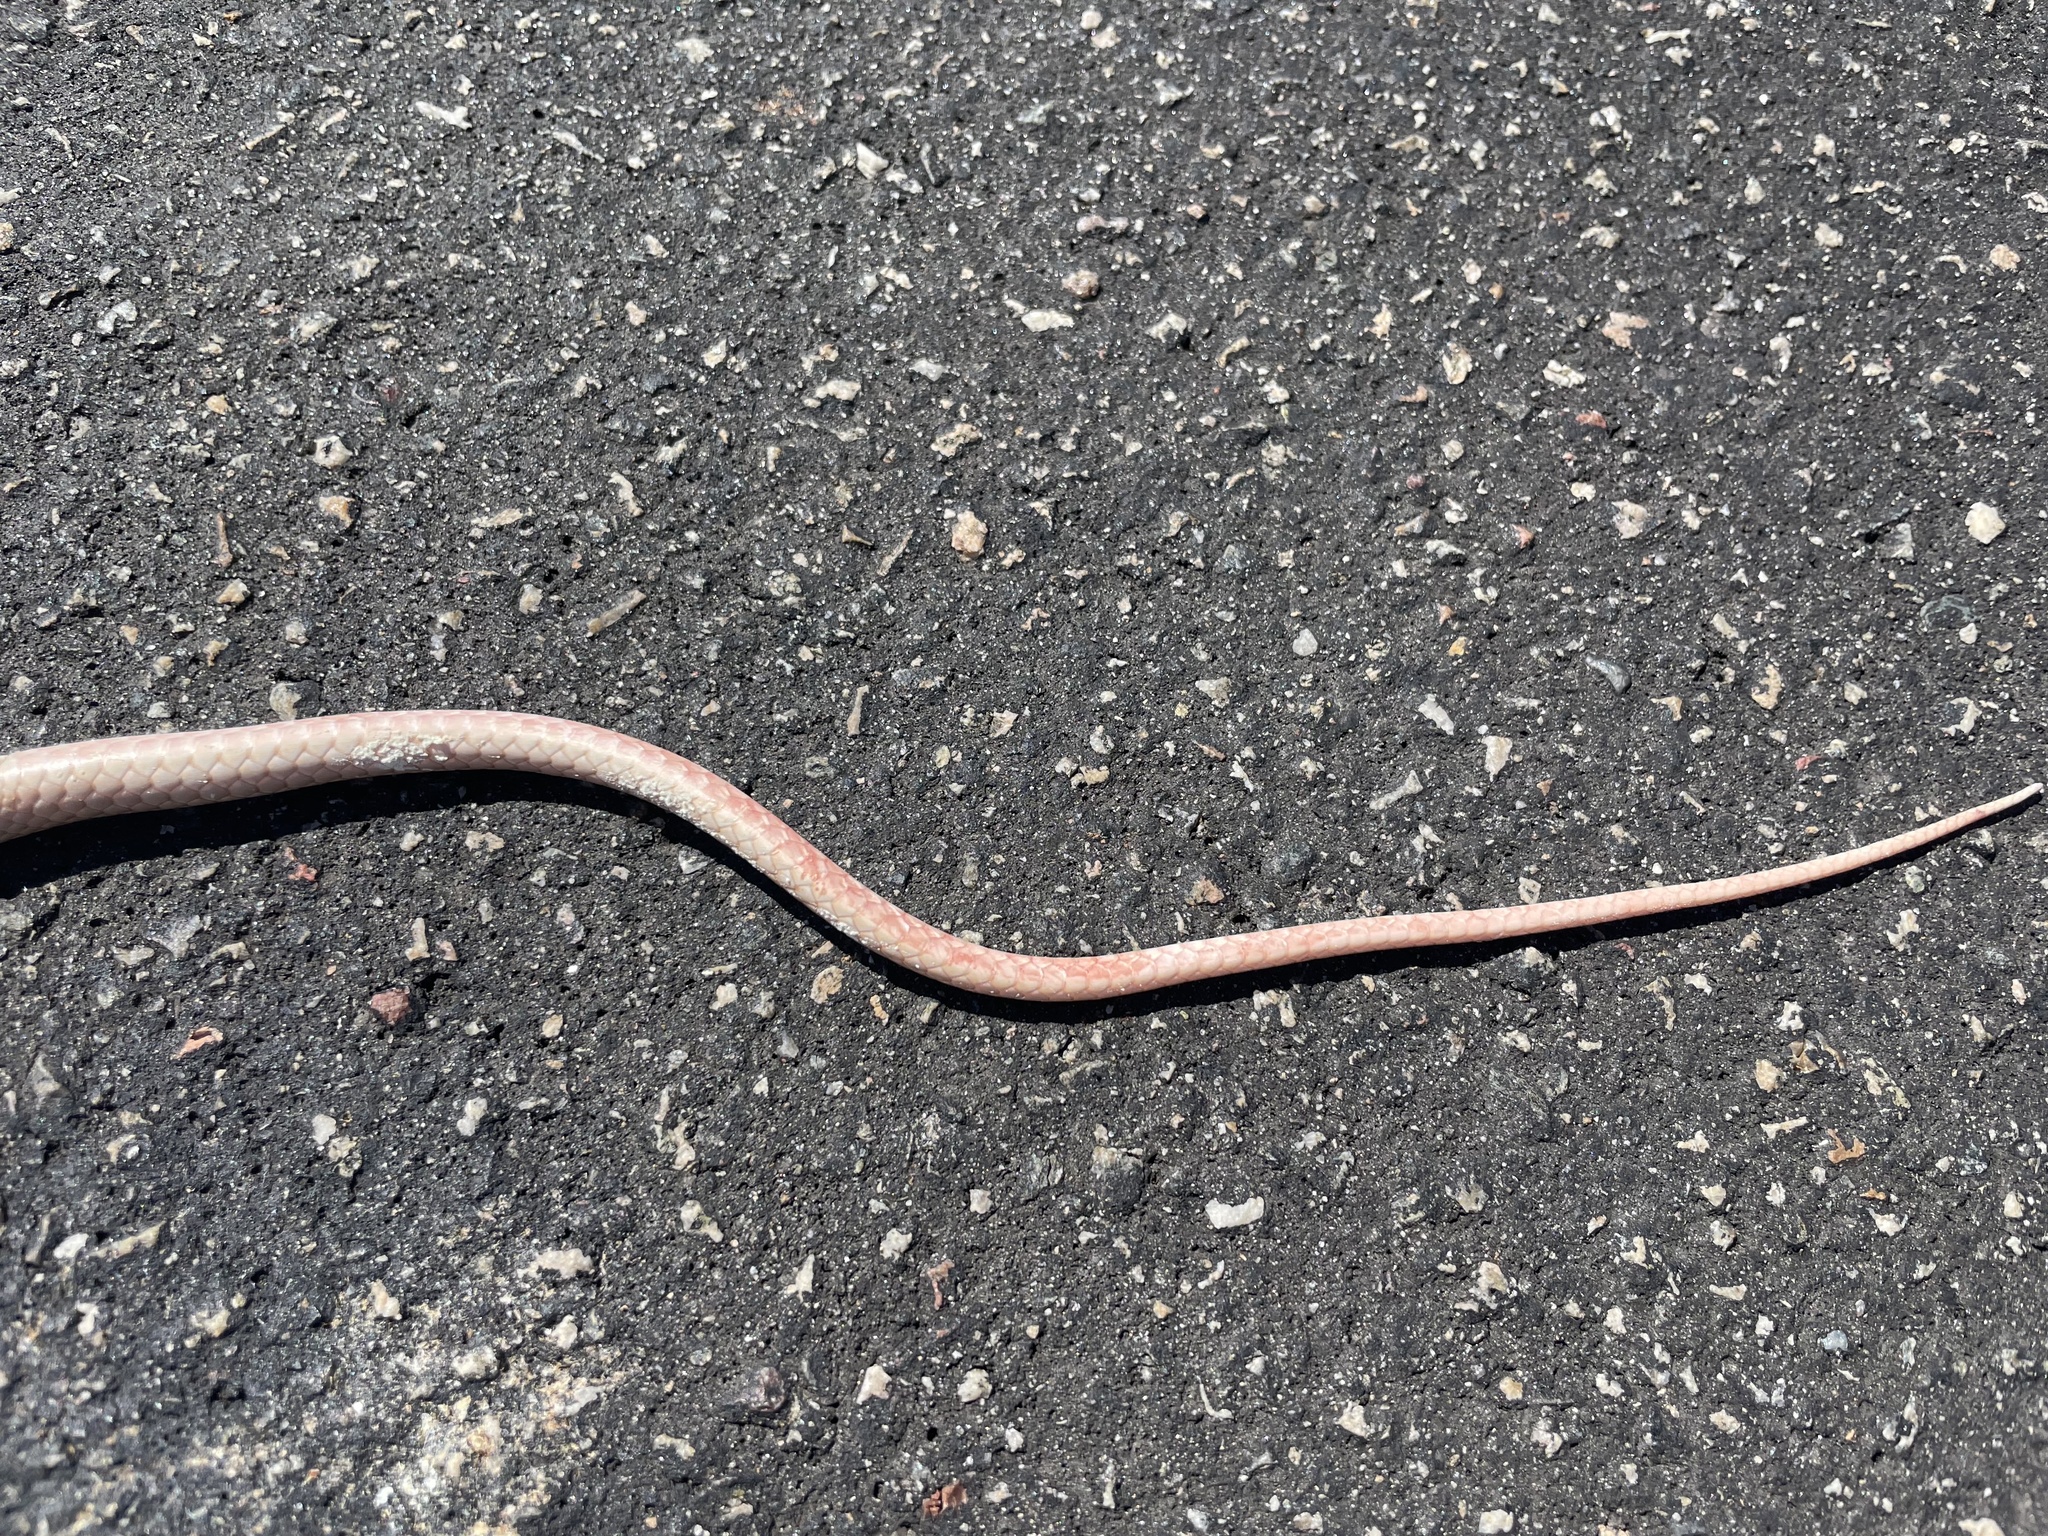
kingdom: Animalia
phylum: Chordata
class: Squamata
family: Colubridae
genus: Masticophis
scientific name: Masticophis flagellum
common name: Coachwhip
